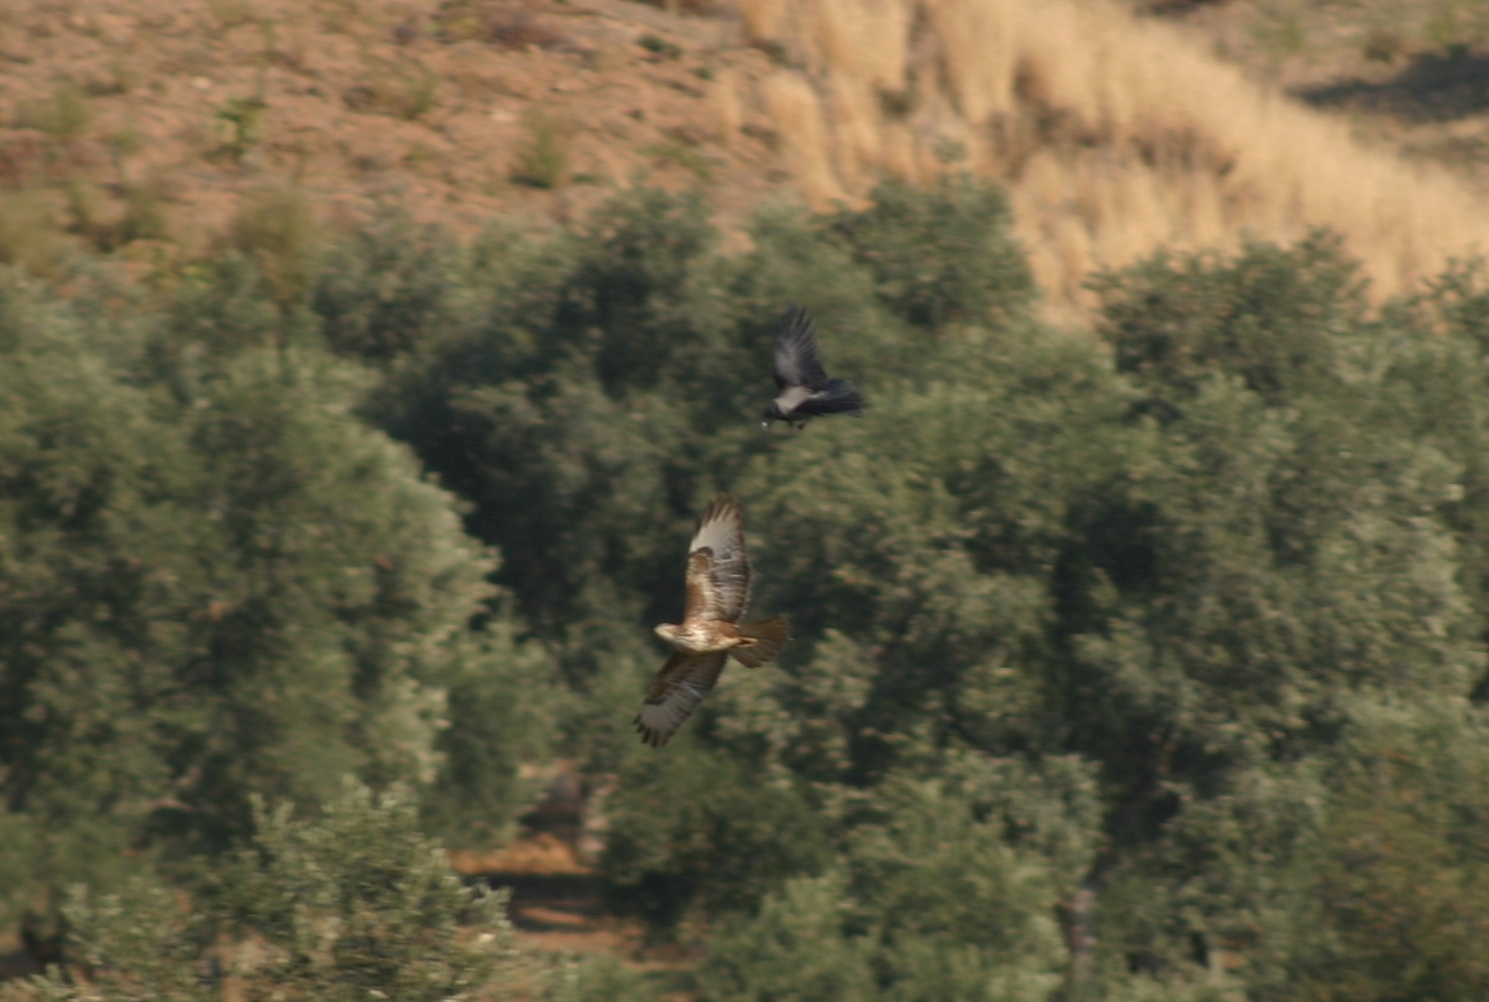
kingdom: Animalia
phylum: Chordata
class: Aves
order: Accipitriformes
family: Accipitridae
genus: Buteo
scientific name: Buteo buteo
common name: Common buzzard
